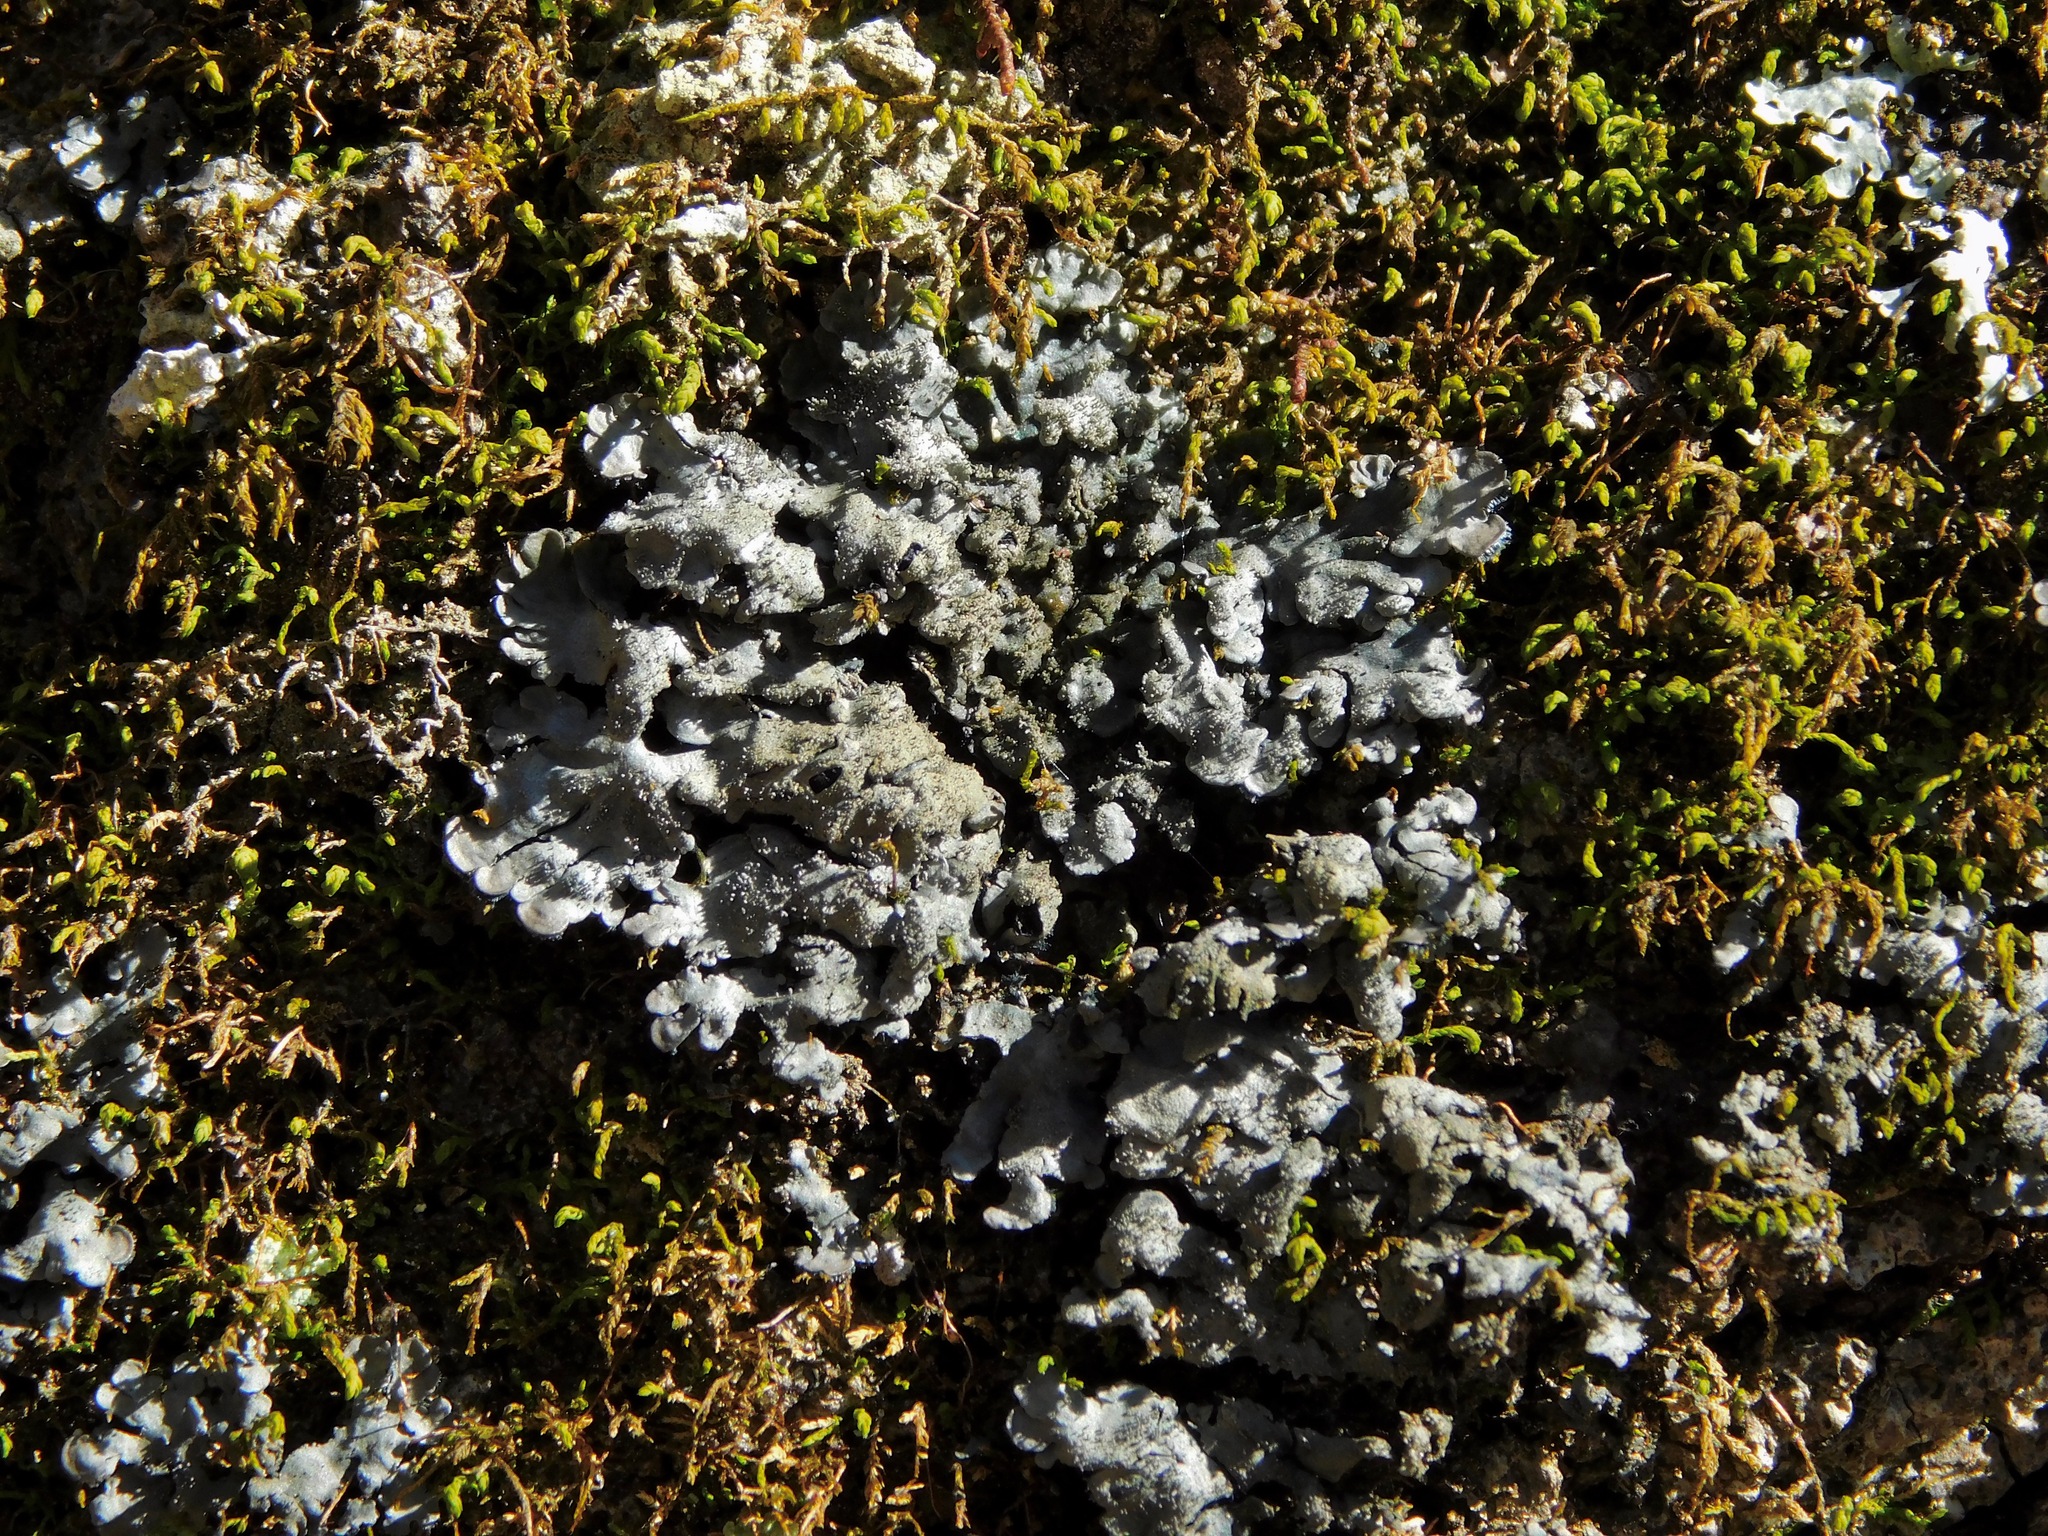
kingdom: Fungi
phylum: Ascomycota
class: Lecanoromycetes
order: Peltigerales
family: Coccocarpiaceae
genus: Coccocarpia
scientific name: Coccocarpia palmicola
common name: Salted shell lichen
